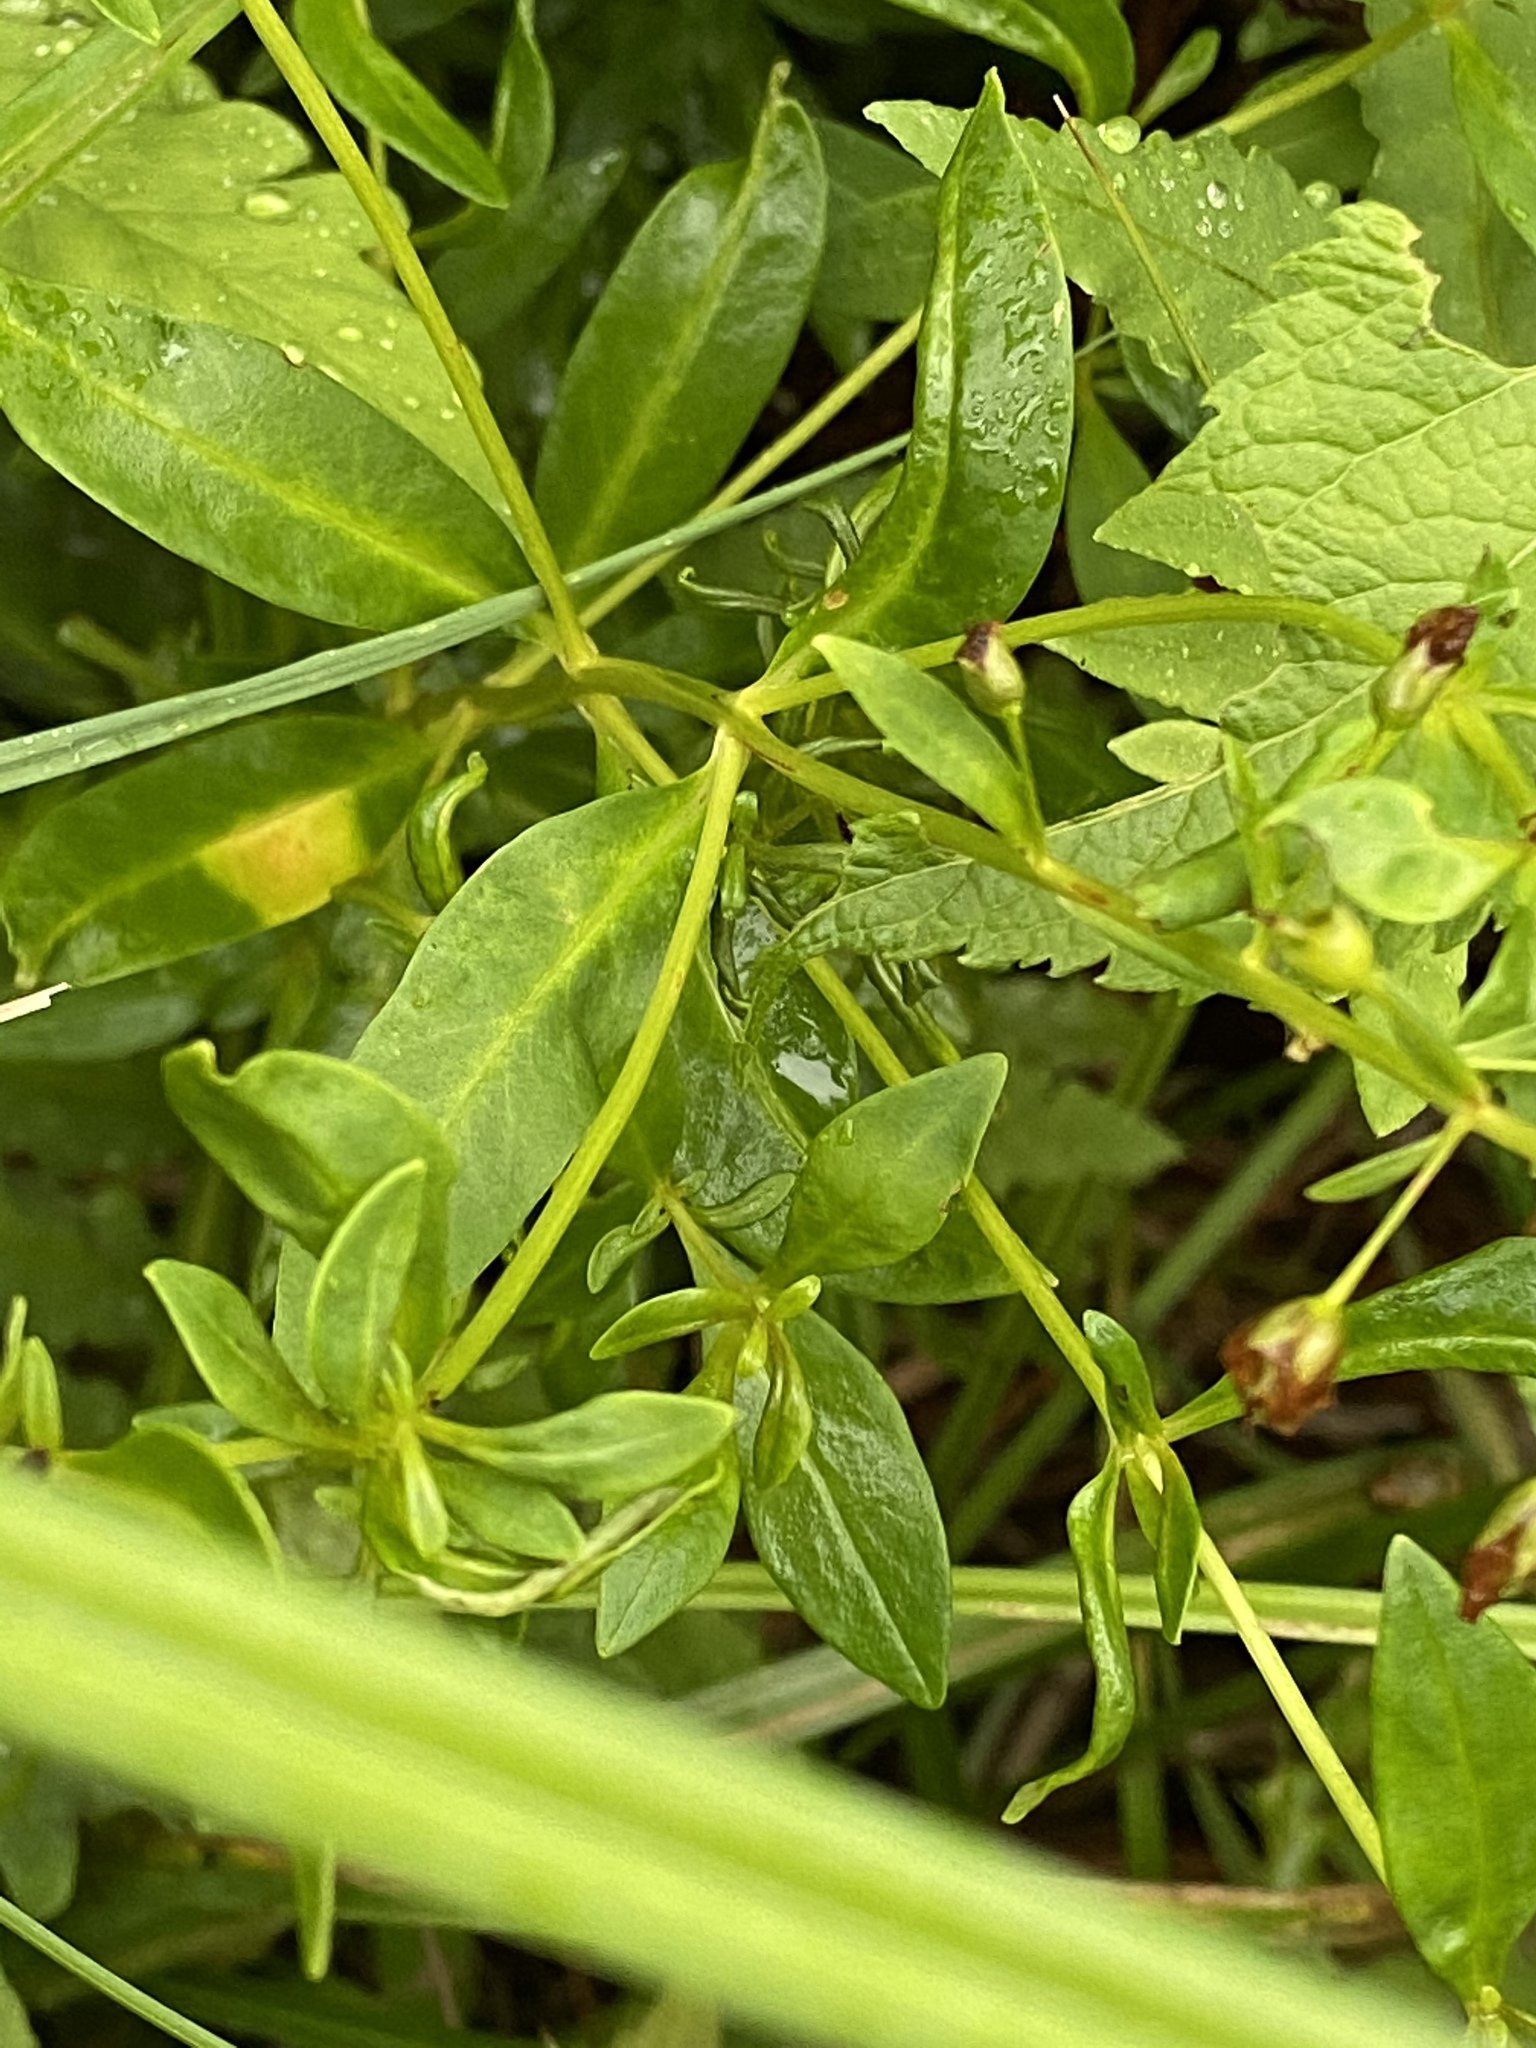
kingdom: Plantae
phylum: Tracheophyta
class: Magnoliopsida
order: Ericales
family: Primulaceae
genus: Lysimachia
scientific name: Lysimachia terrestris
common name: Lake loosestrife
